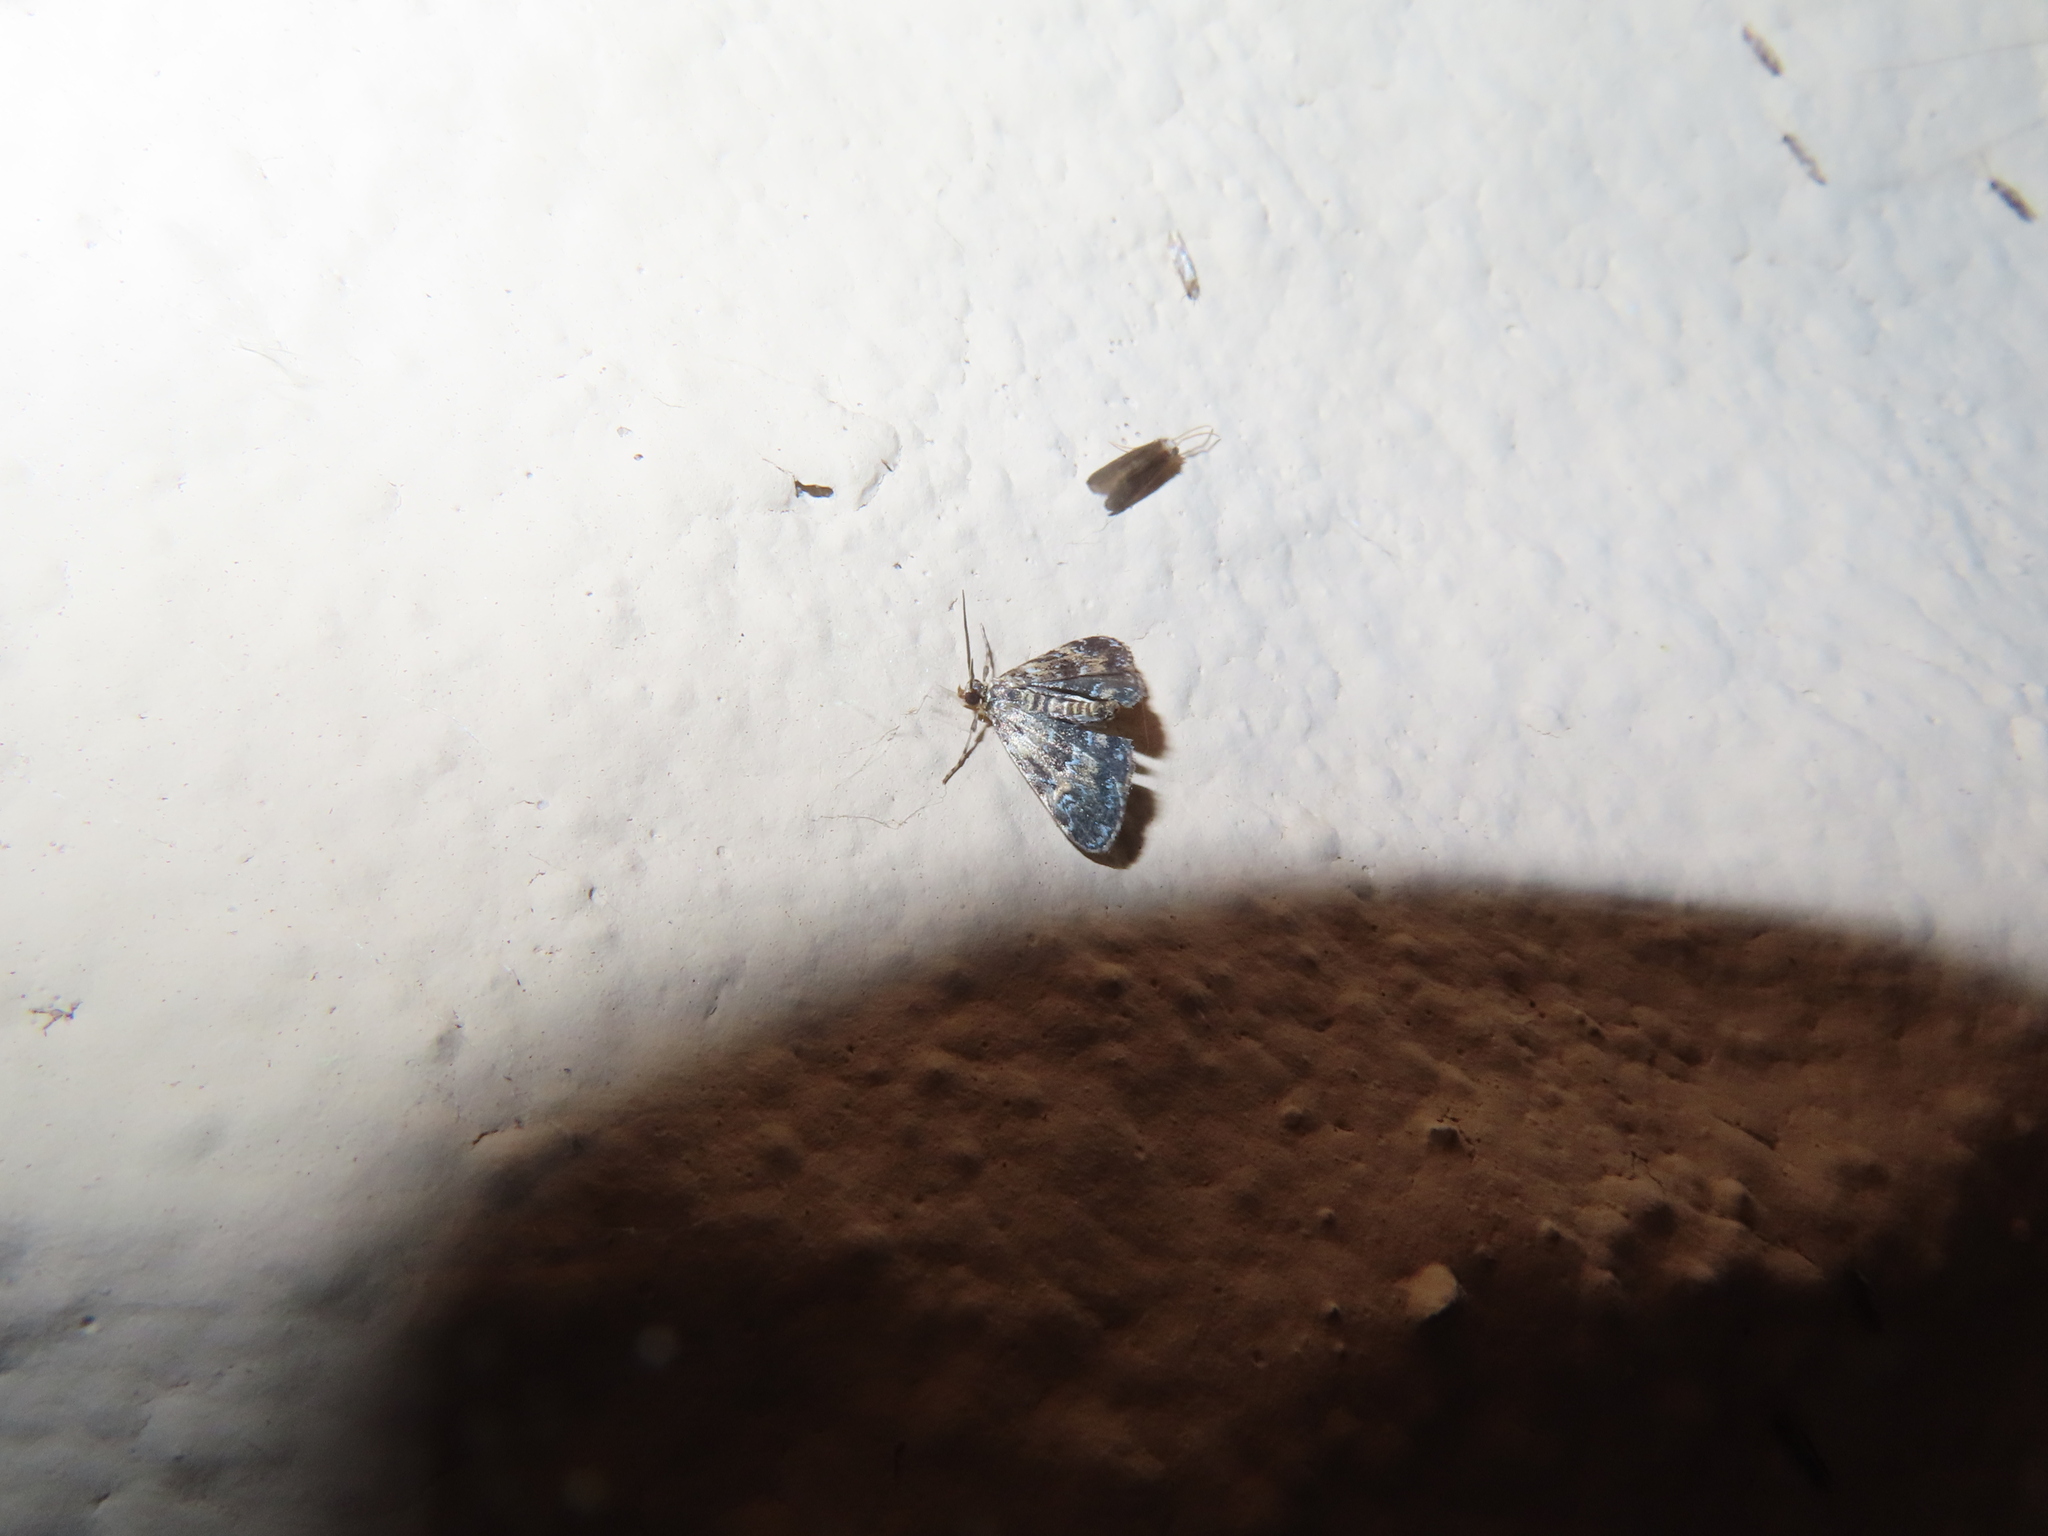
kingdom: Animalia
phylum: Arthropoda
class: Insecta
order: Lepidoptera
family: Crambidae
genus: Elophila
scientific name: Elophila obliteralis
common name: Waterlily leafcutter moth
